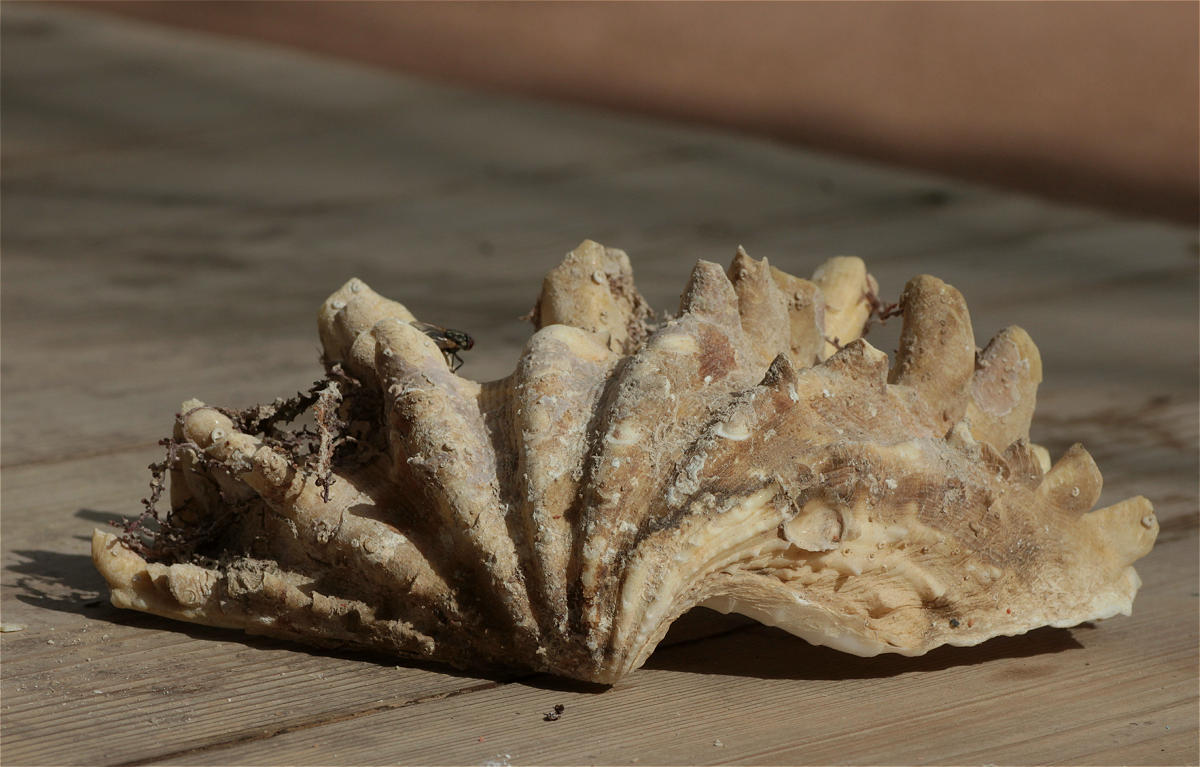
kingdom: Animalia
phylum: Mollusca
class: Bivalvia
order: Cardiida
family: Cardiidae
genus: Tridacna
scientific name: Tridacna squamosina
